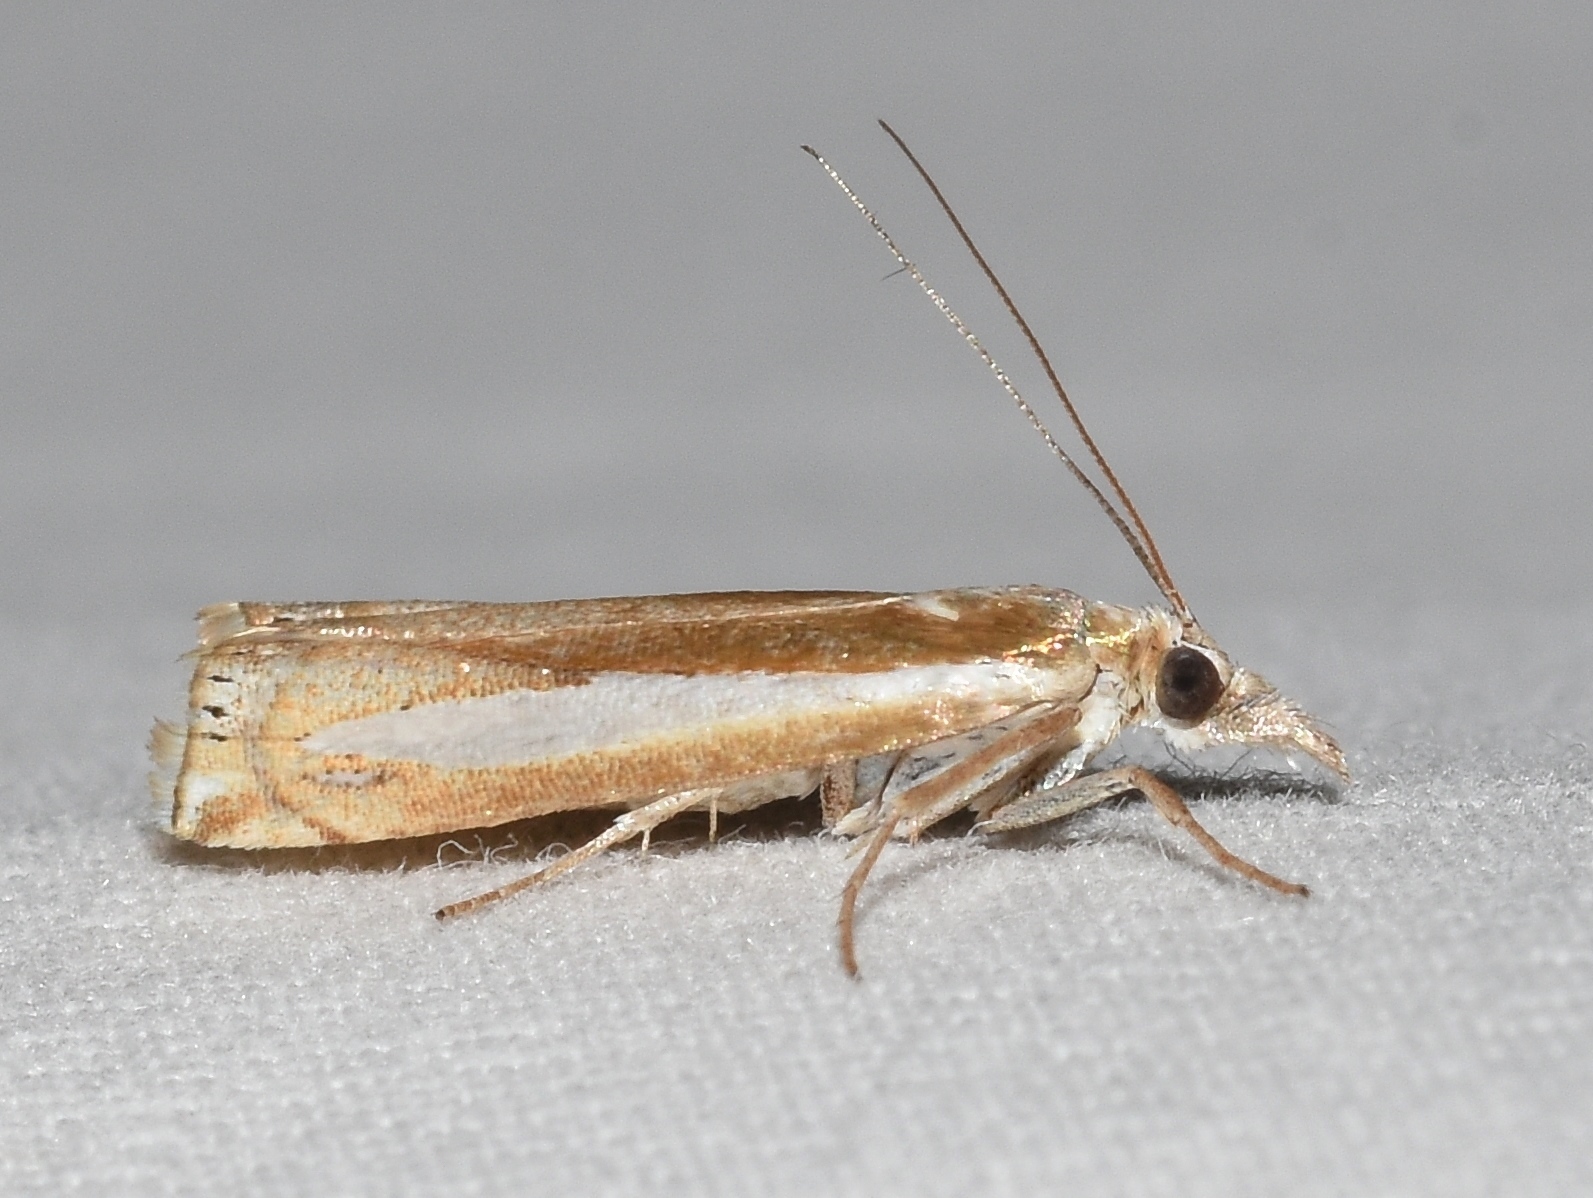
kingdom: Animalia
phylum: Arthropoda
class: Insecta
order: Lepidoptera
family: Crambidae
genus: Crambus
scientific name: Crambus praefectellus
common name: Common grass-veneer
